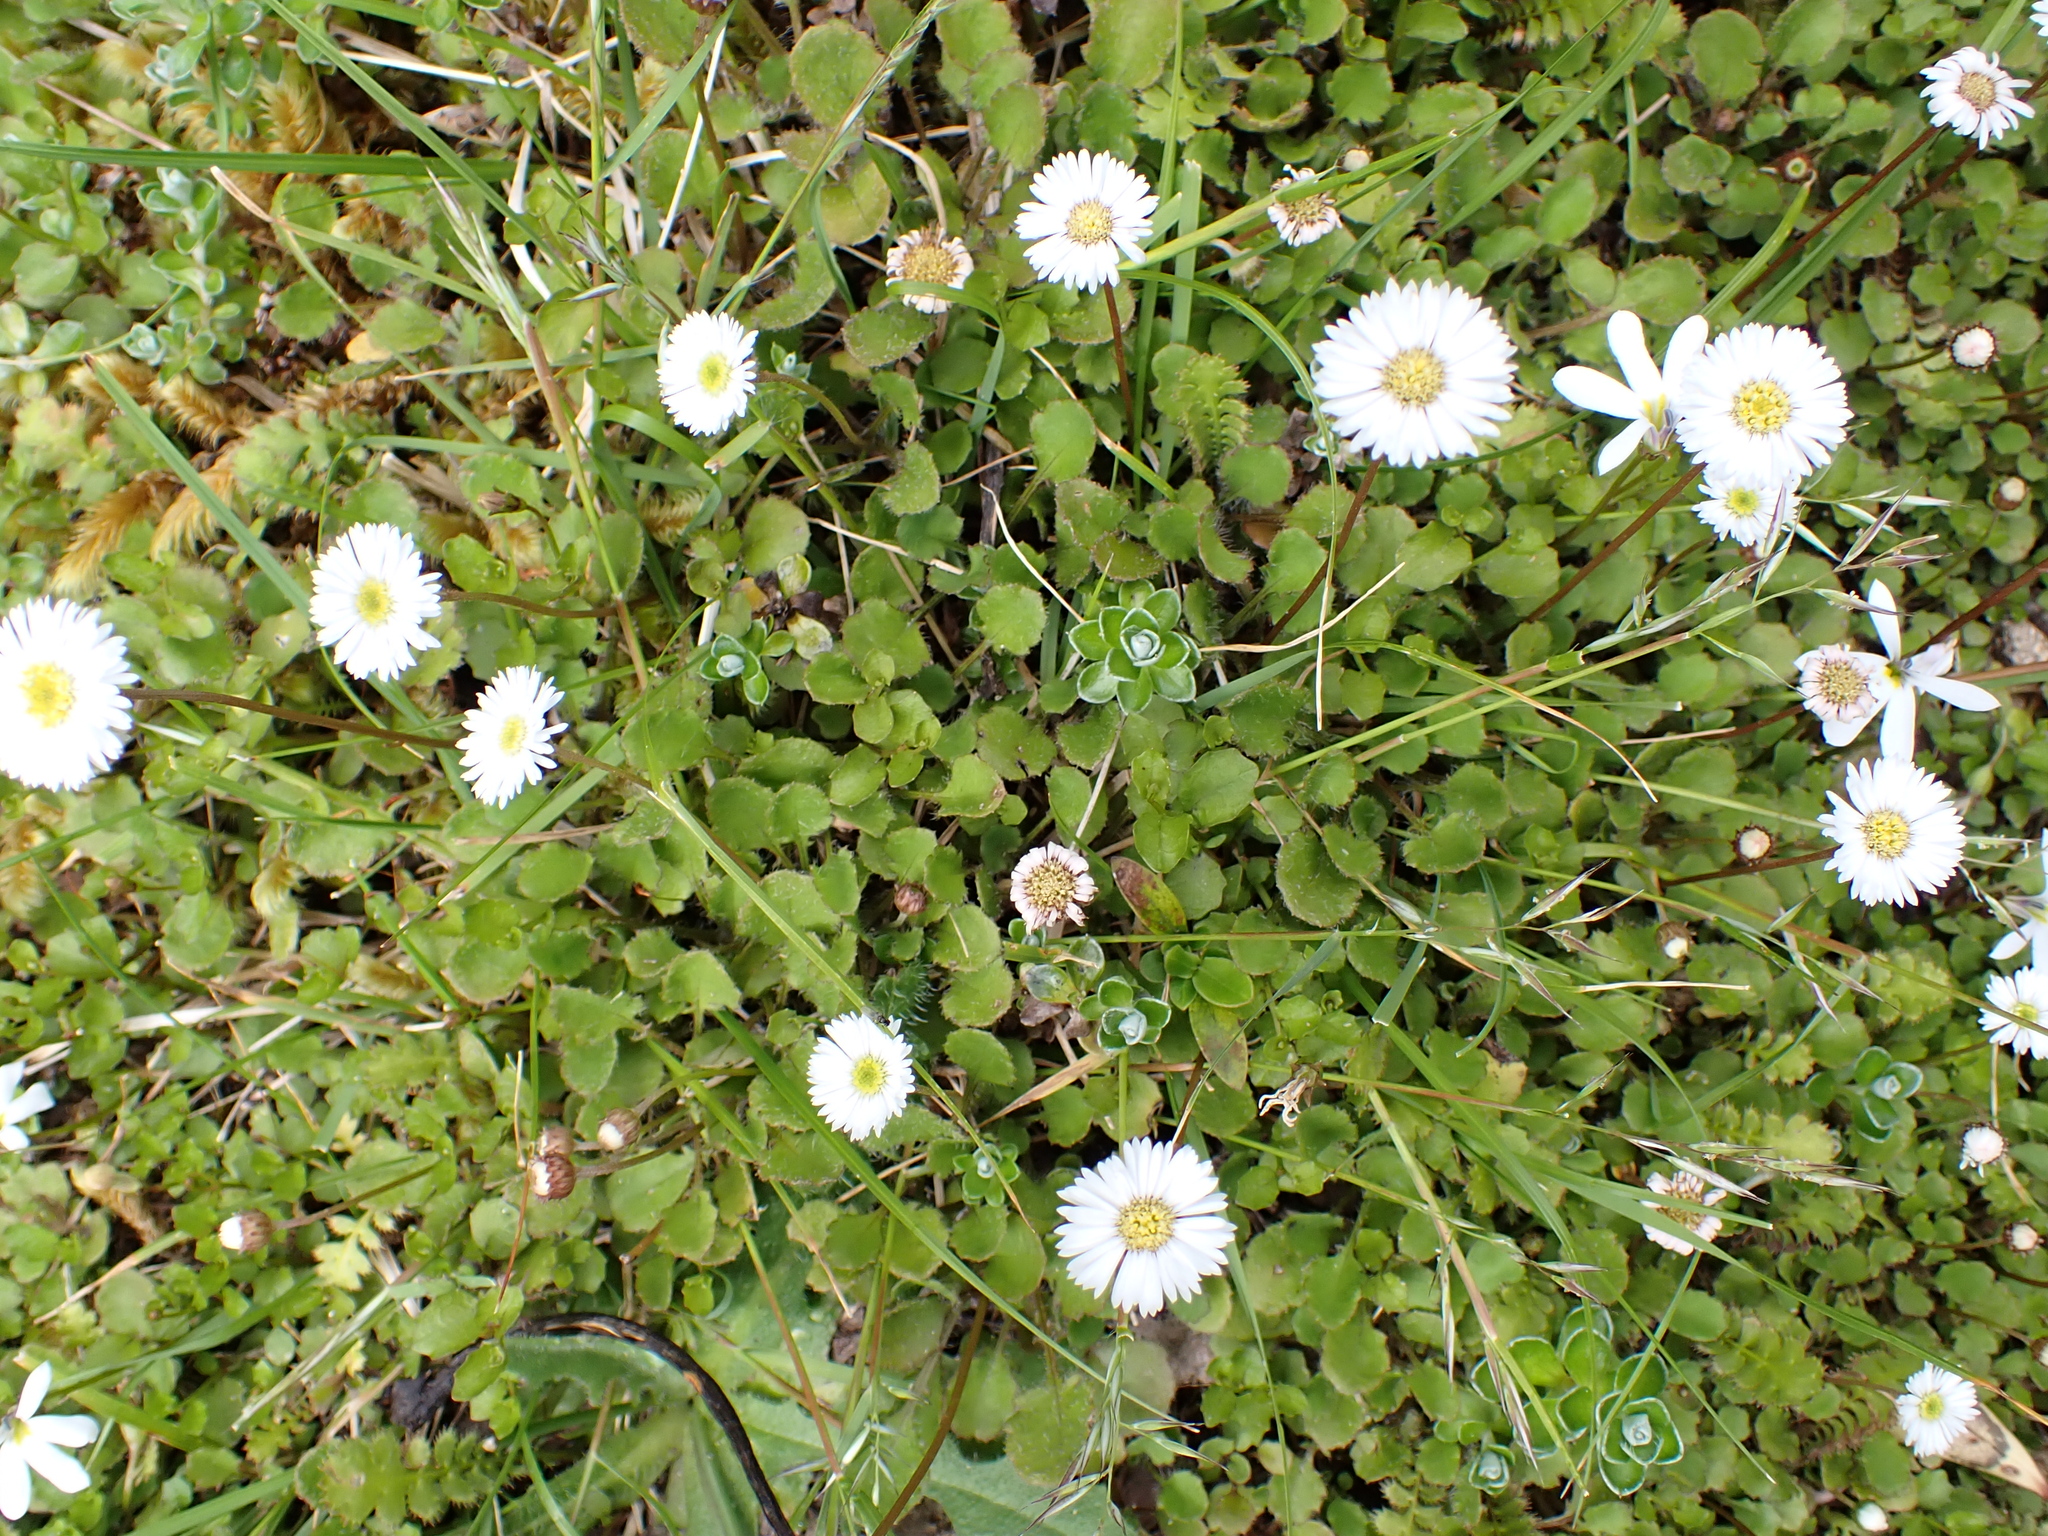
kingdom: Plantae
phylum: Tracheophyta
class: Magnoliopsida
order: Asterales
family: Asteraceae
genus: Lagenophora
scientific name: Lagenophora pumila
